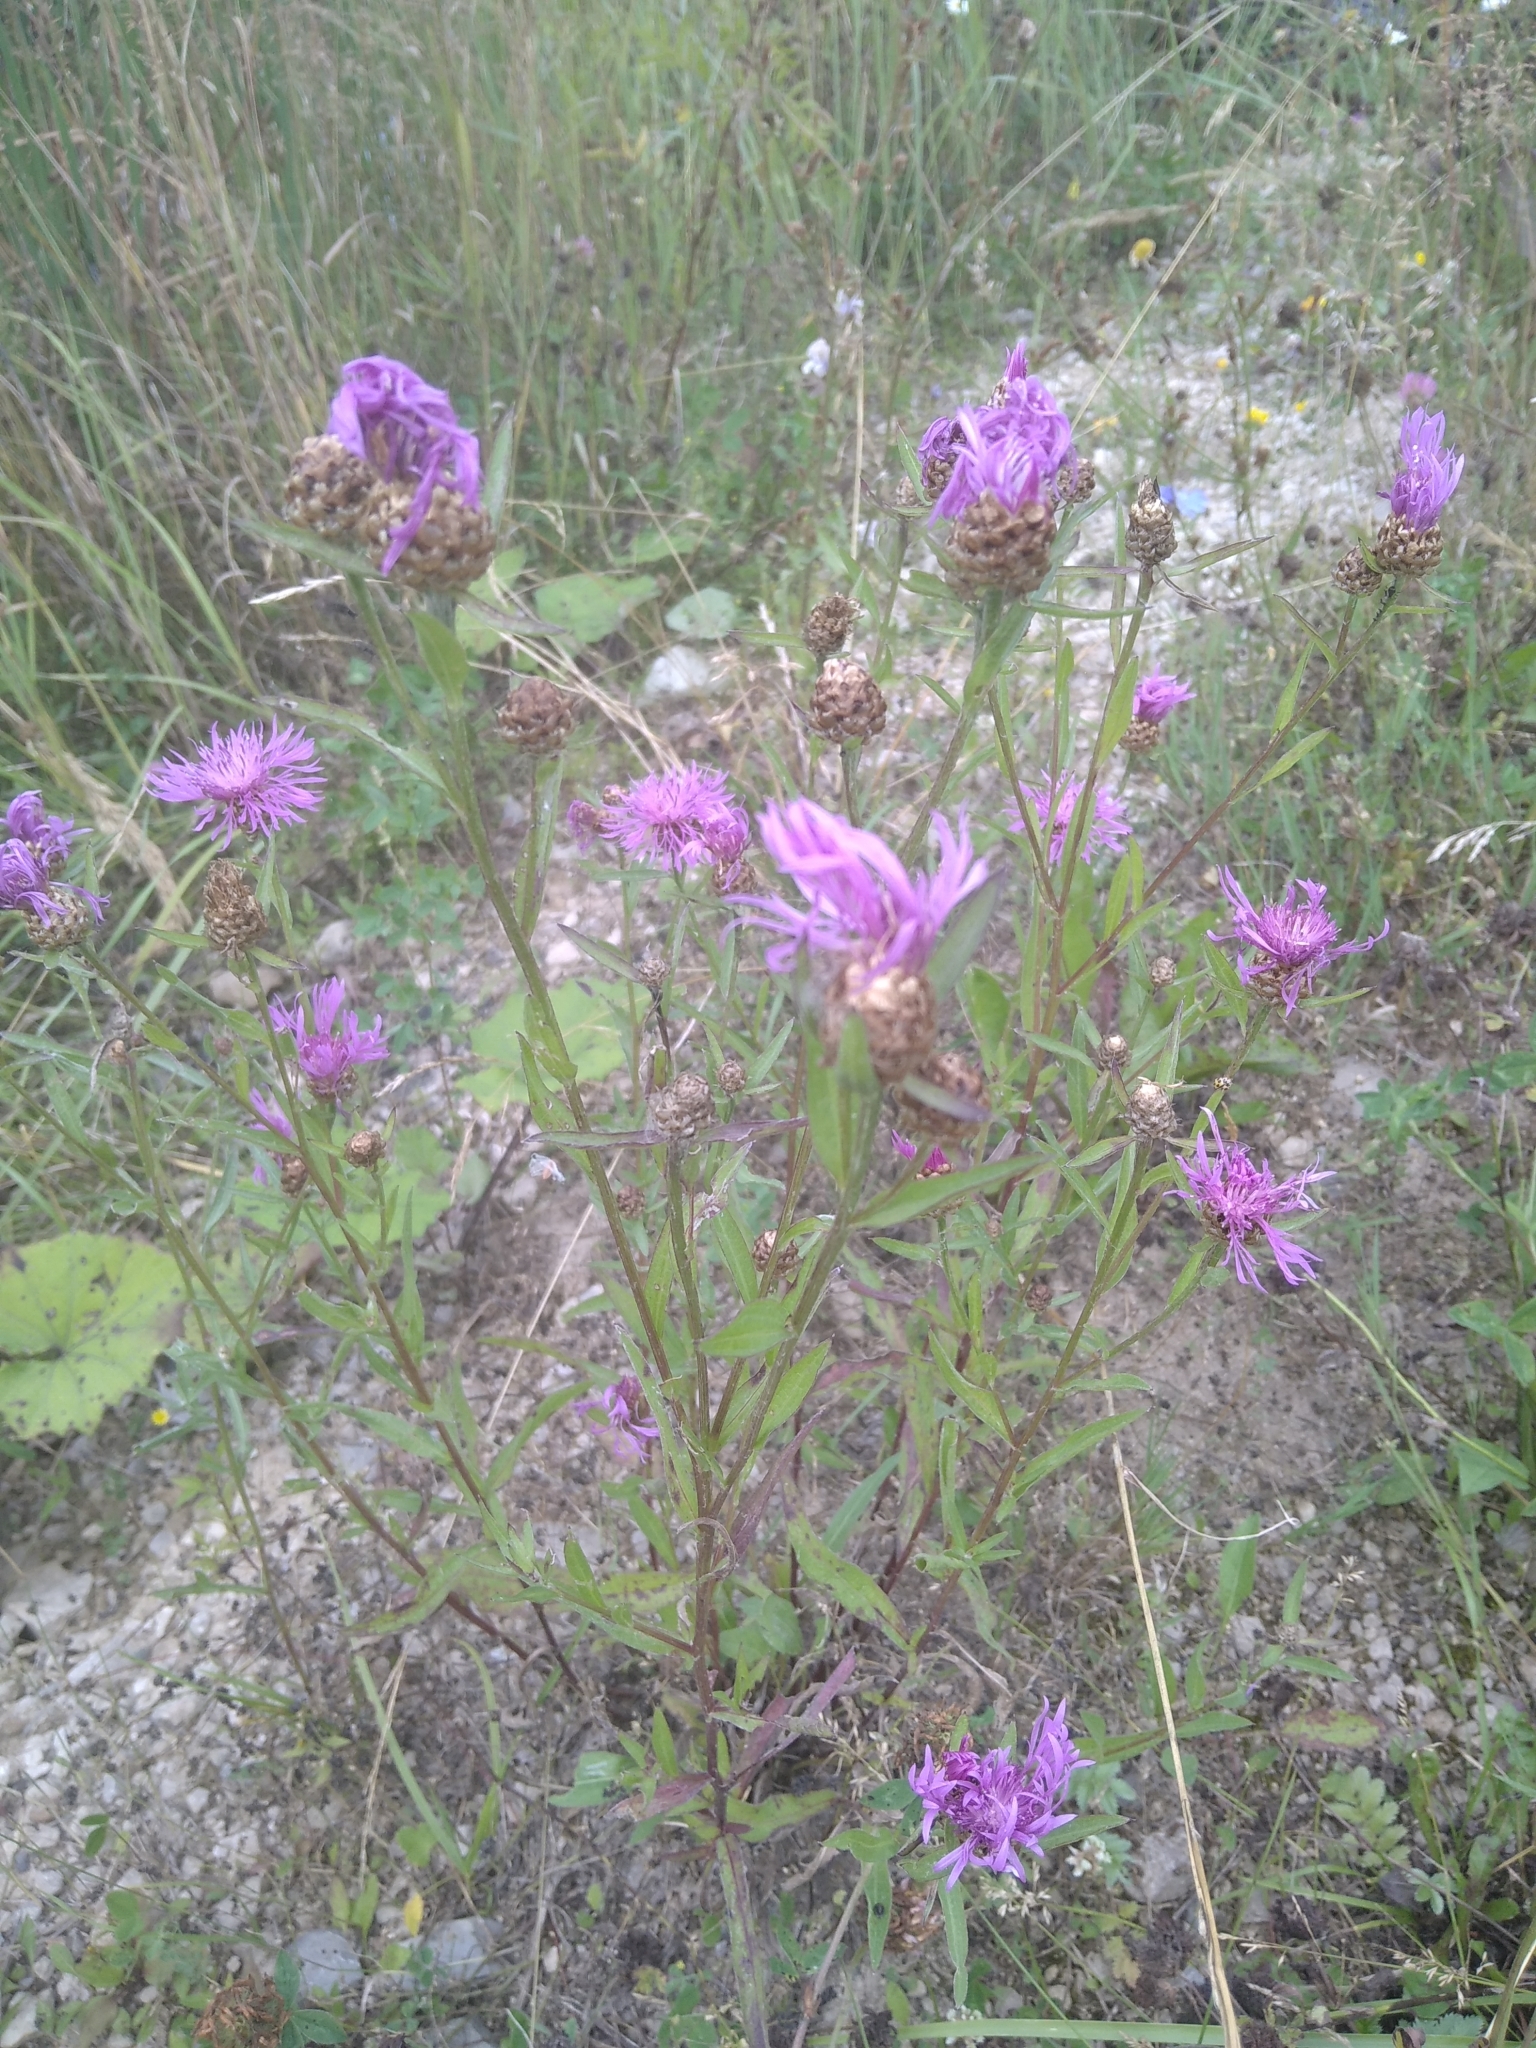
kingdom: Plantae
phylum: Tracheophyta
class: Magnoliopsida
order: Asterales
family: Asteraceae
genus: Centaurea
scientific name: Centaurea jacea
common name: Brown knapweed
